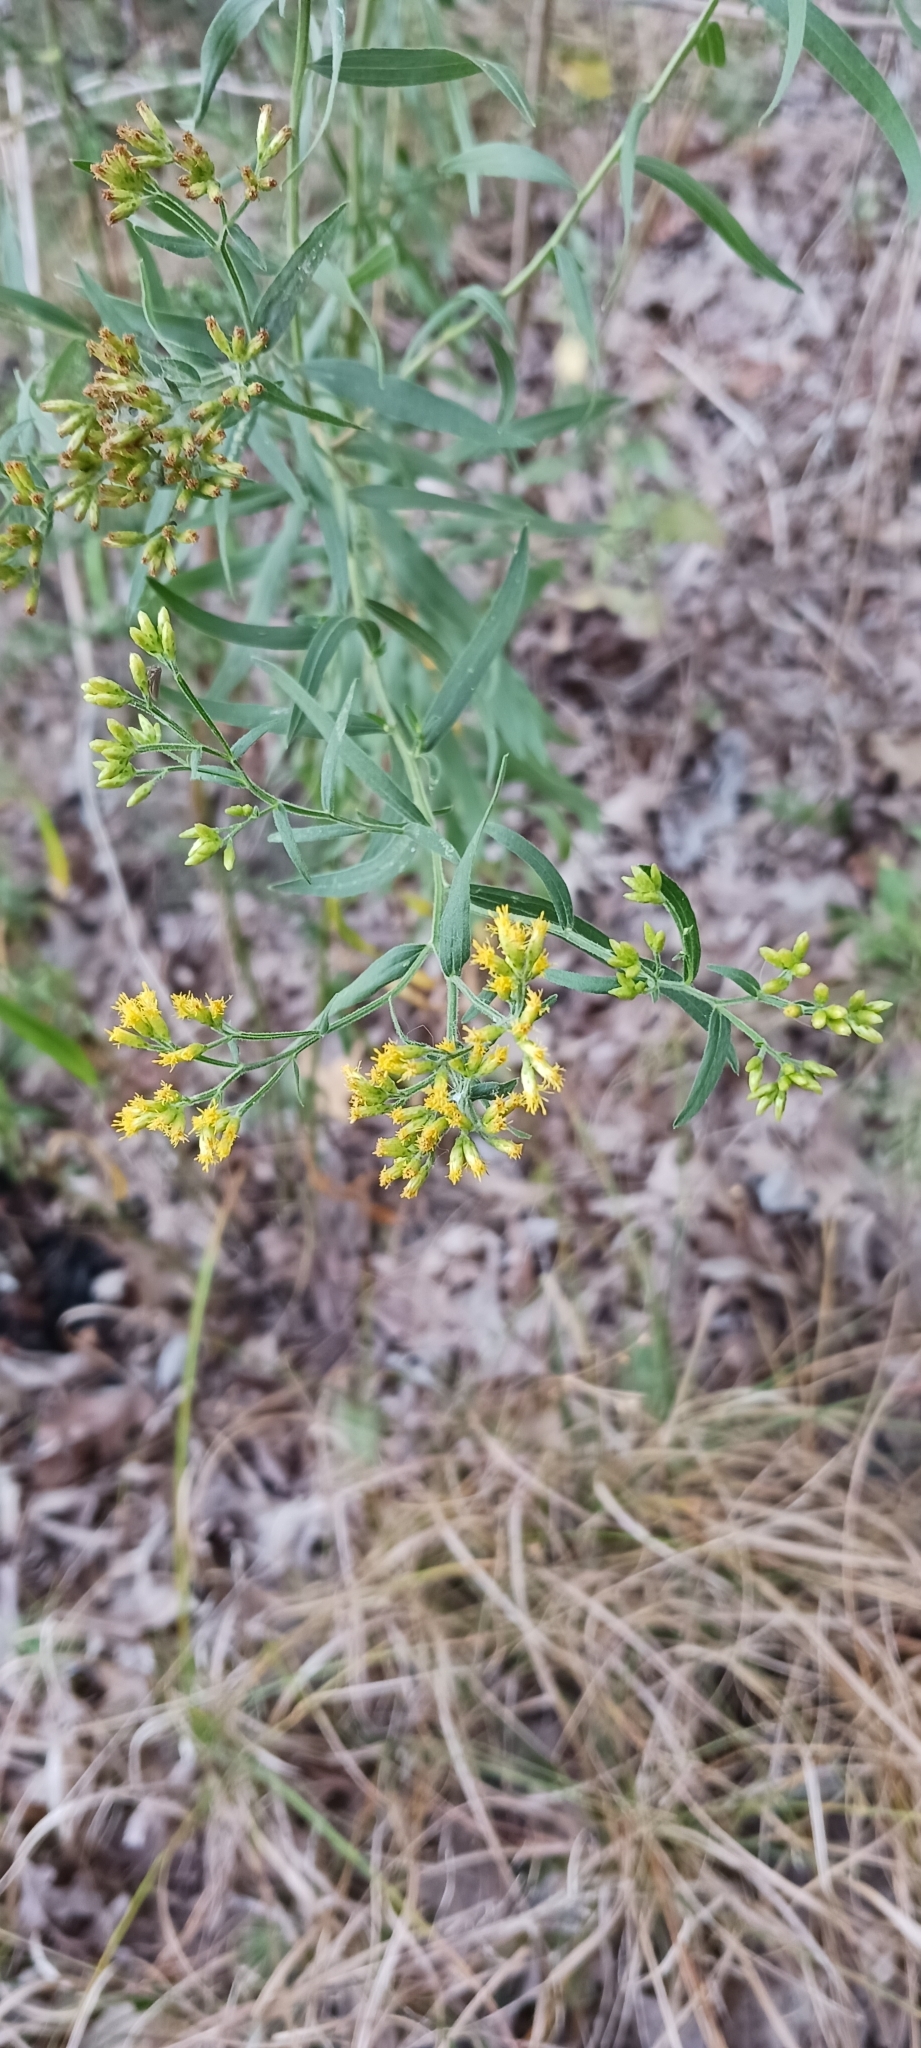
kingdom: Plantae
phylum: Tracheophyta
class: Magnoliopsida
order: Asterales
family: Asteraceae
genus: Euthamia
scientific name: Euthamia graminifolia
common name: Common goldentop
